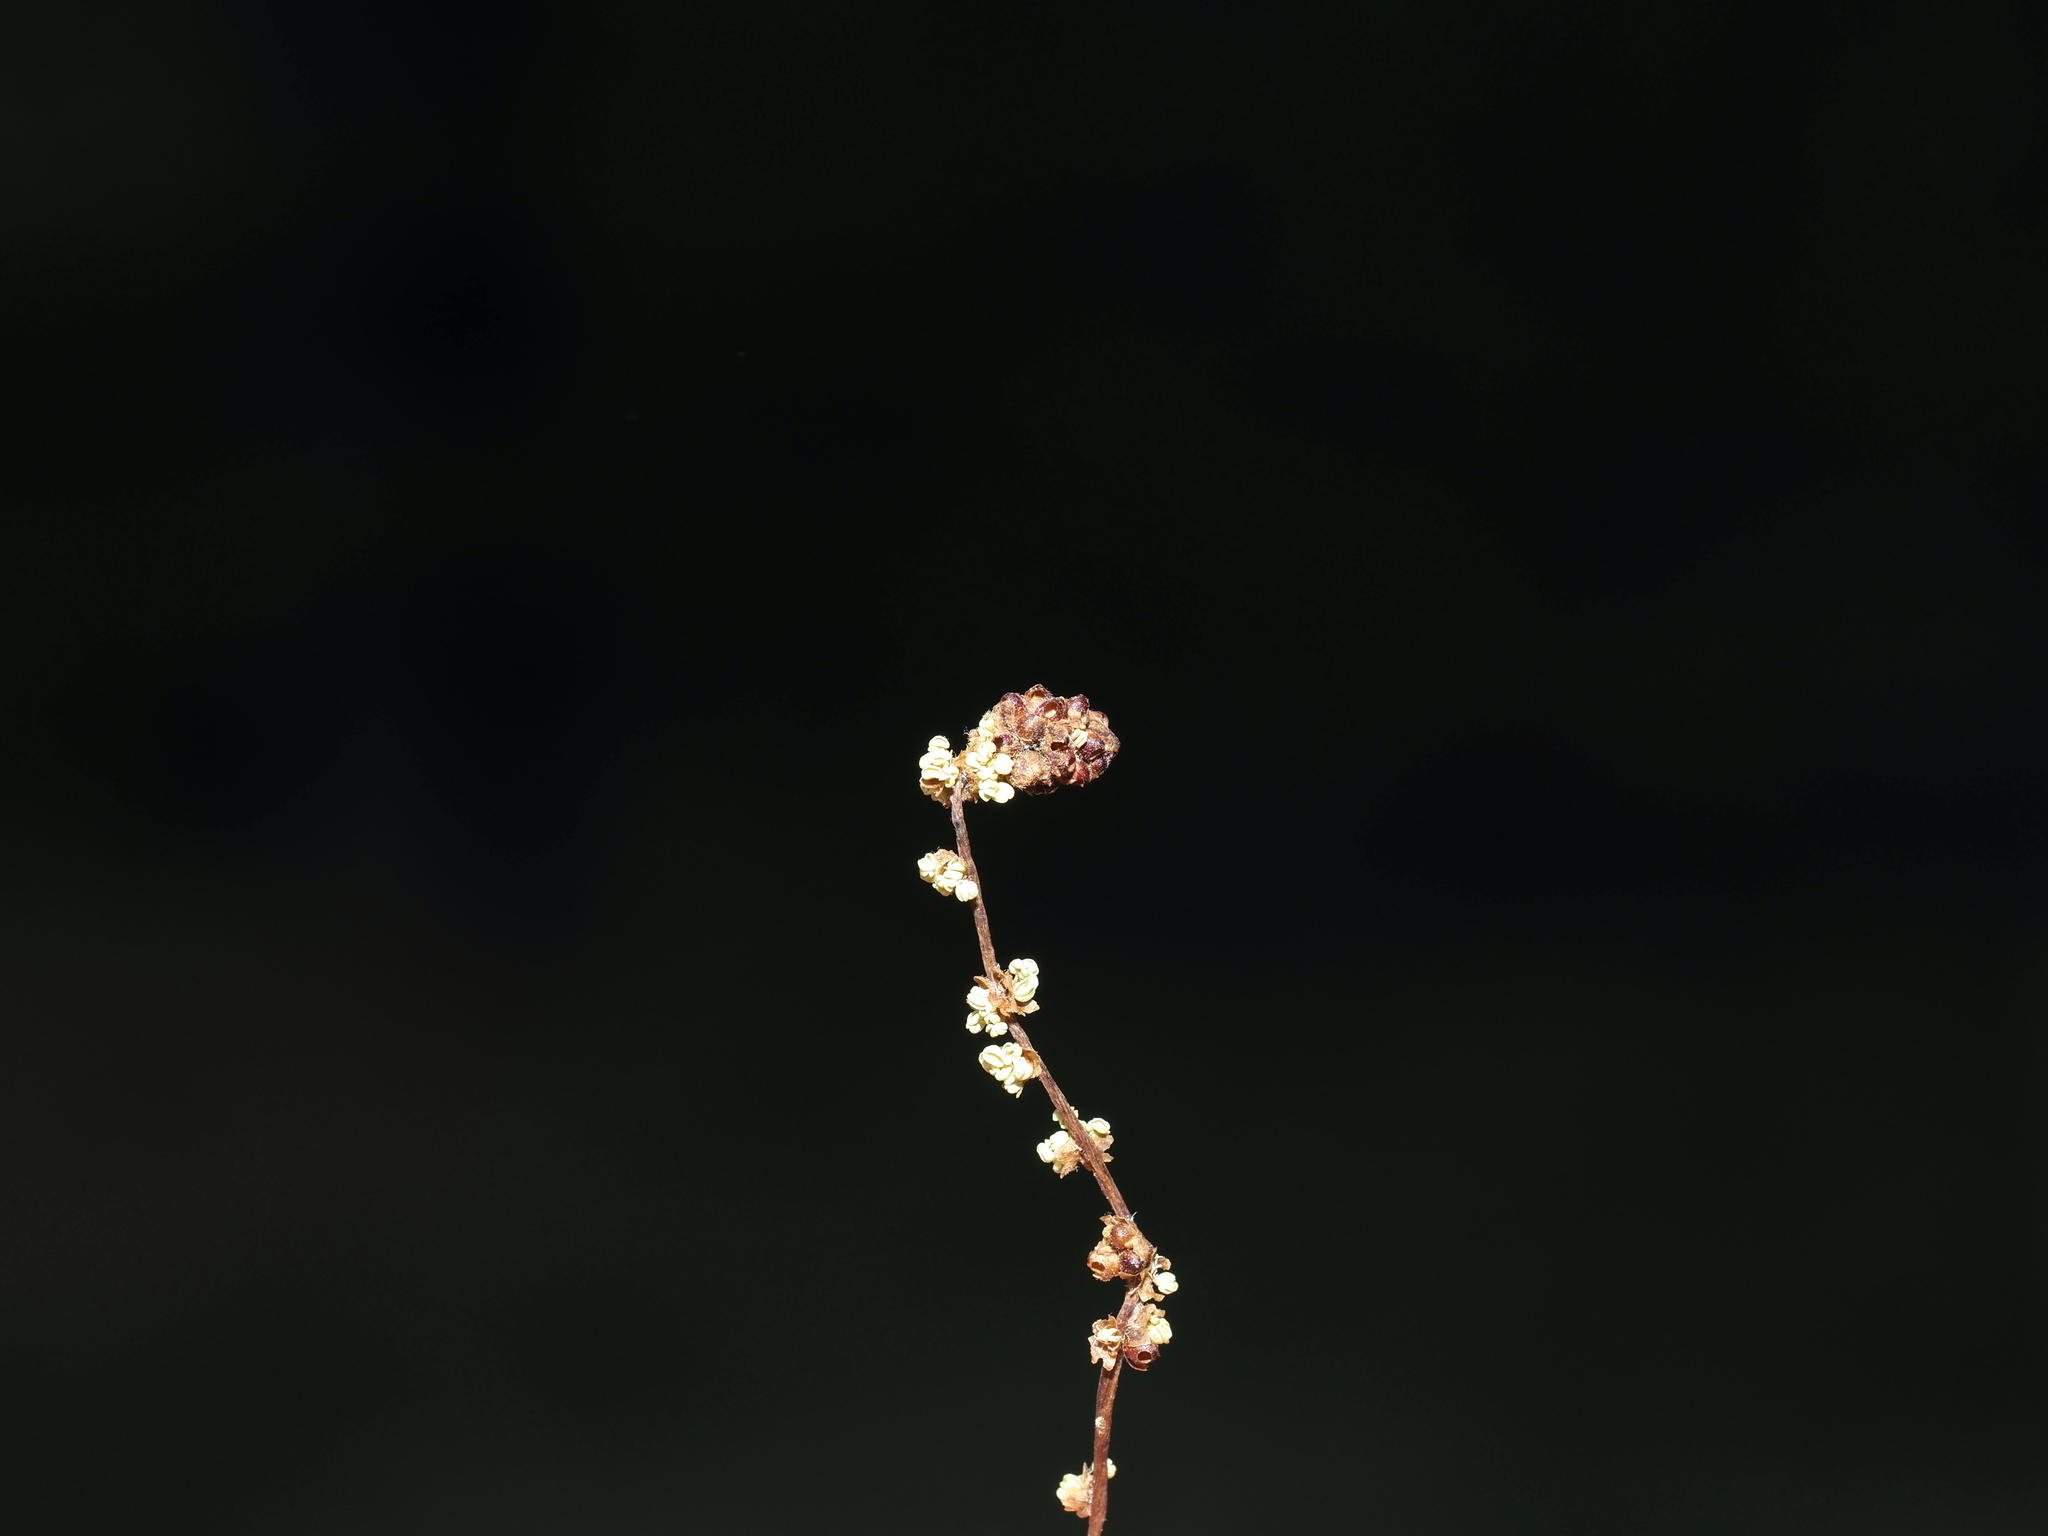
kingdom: Animalia
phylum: Arthropoda
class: Insecta
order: Hymenoptera
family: Cynipidae
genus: Callirhytis
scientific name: Callirhytis
